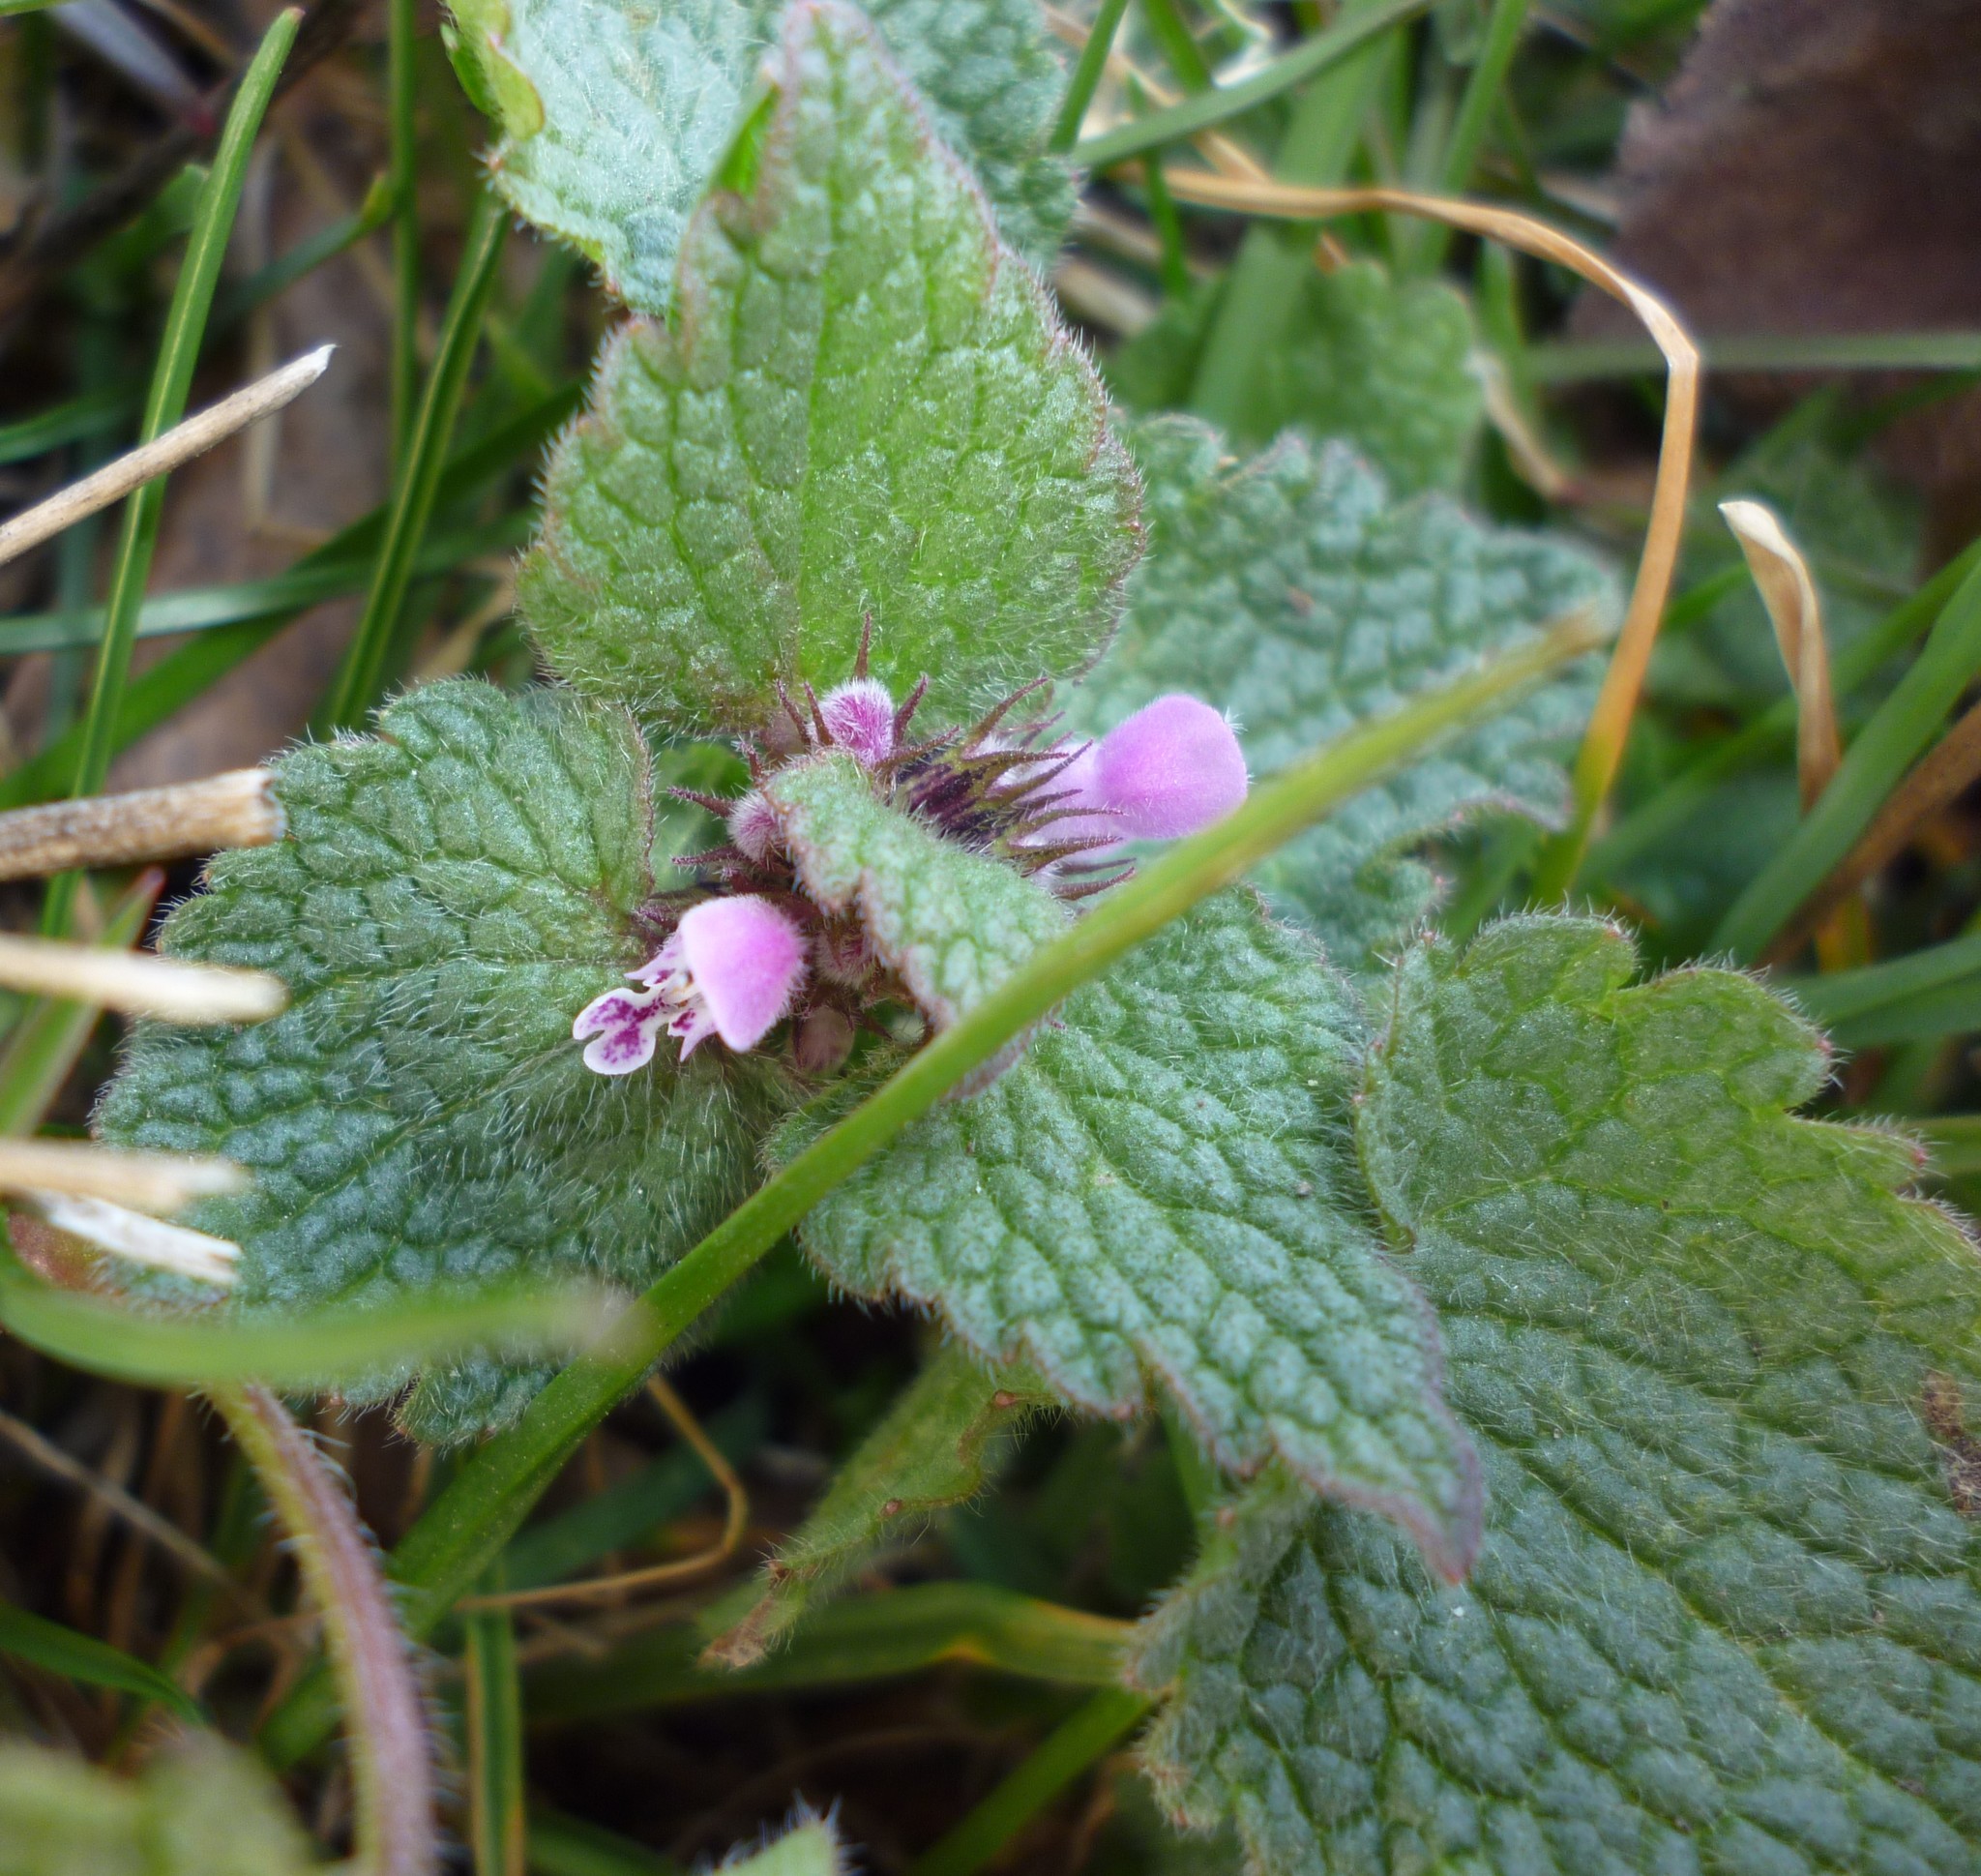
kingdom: Plantae
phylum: Tracheophyta
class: Magnoliopsida
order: Lamiales
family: Lamiaceae
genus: Lamium
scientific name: Lamium purpureum
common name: Red dead-nettle
